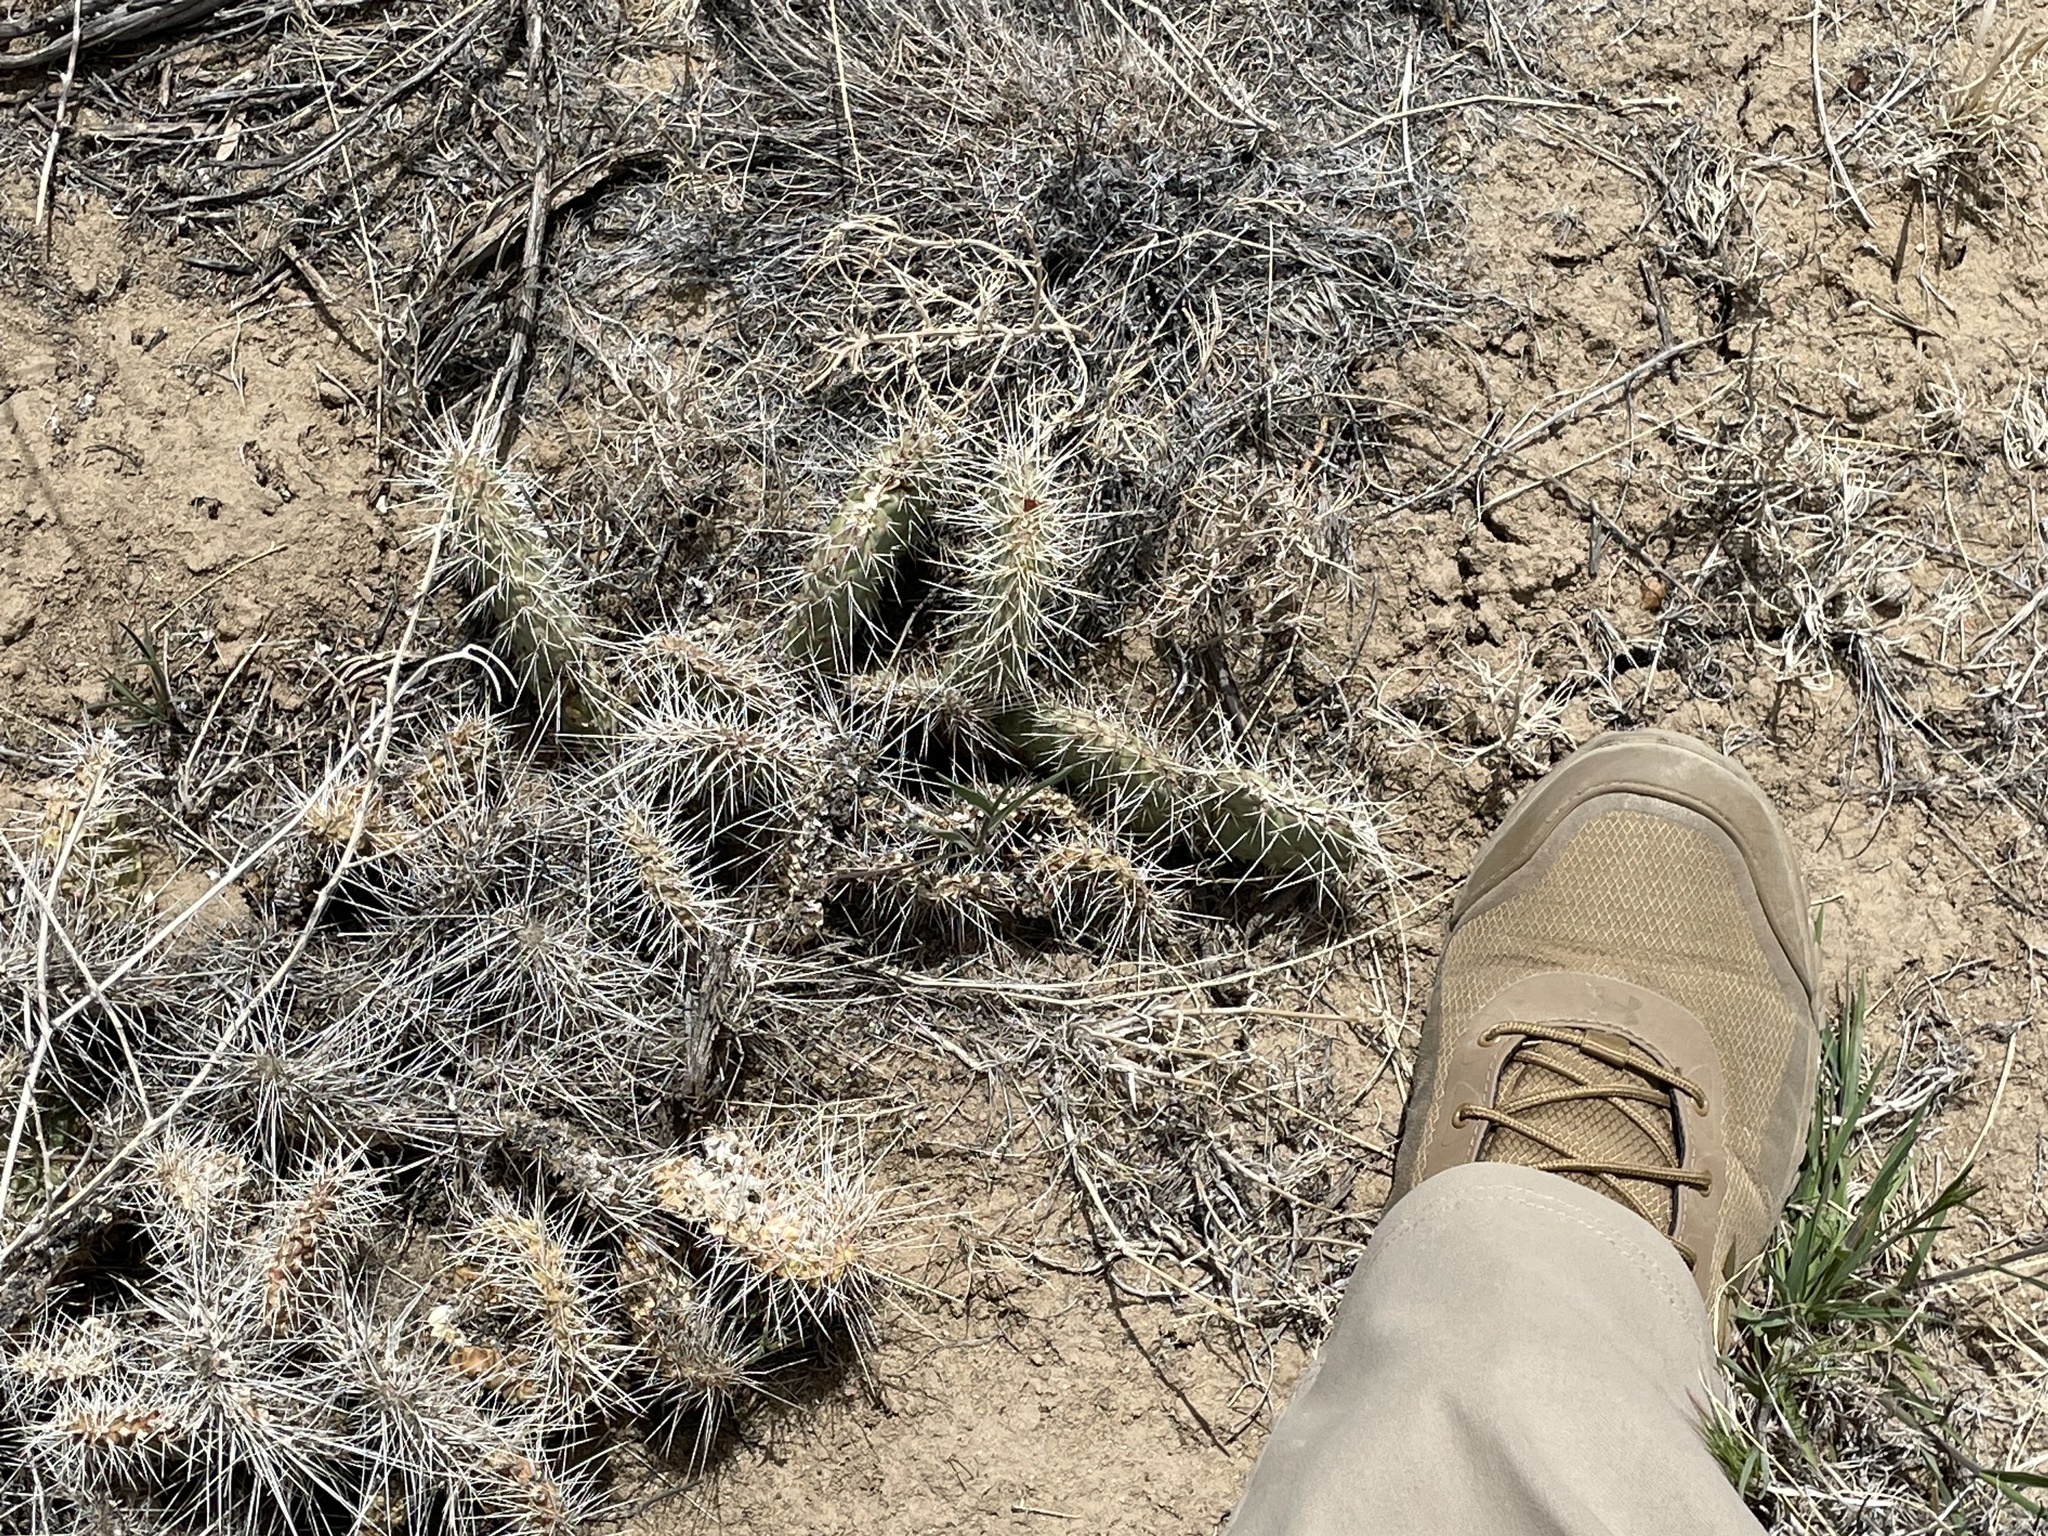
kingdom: Plantae
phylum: Tracheophyta
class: Magnoliopsida
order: Caryophyllales
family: Cactaceae
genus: Opuntia
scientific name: Opuntia polyacantha
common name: Plains prickly-pear
